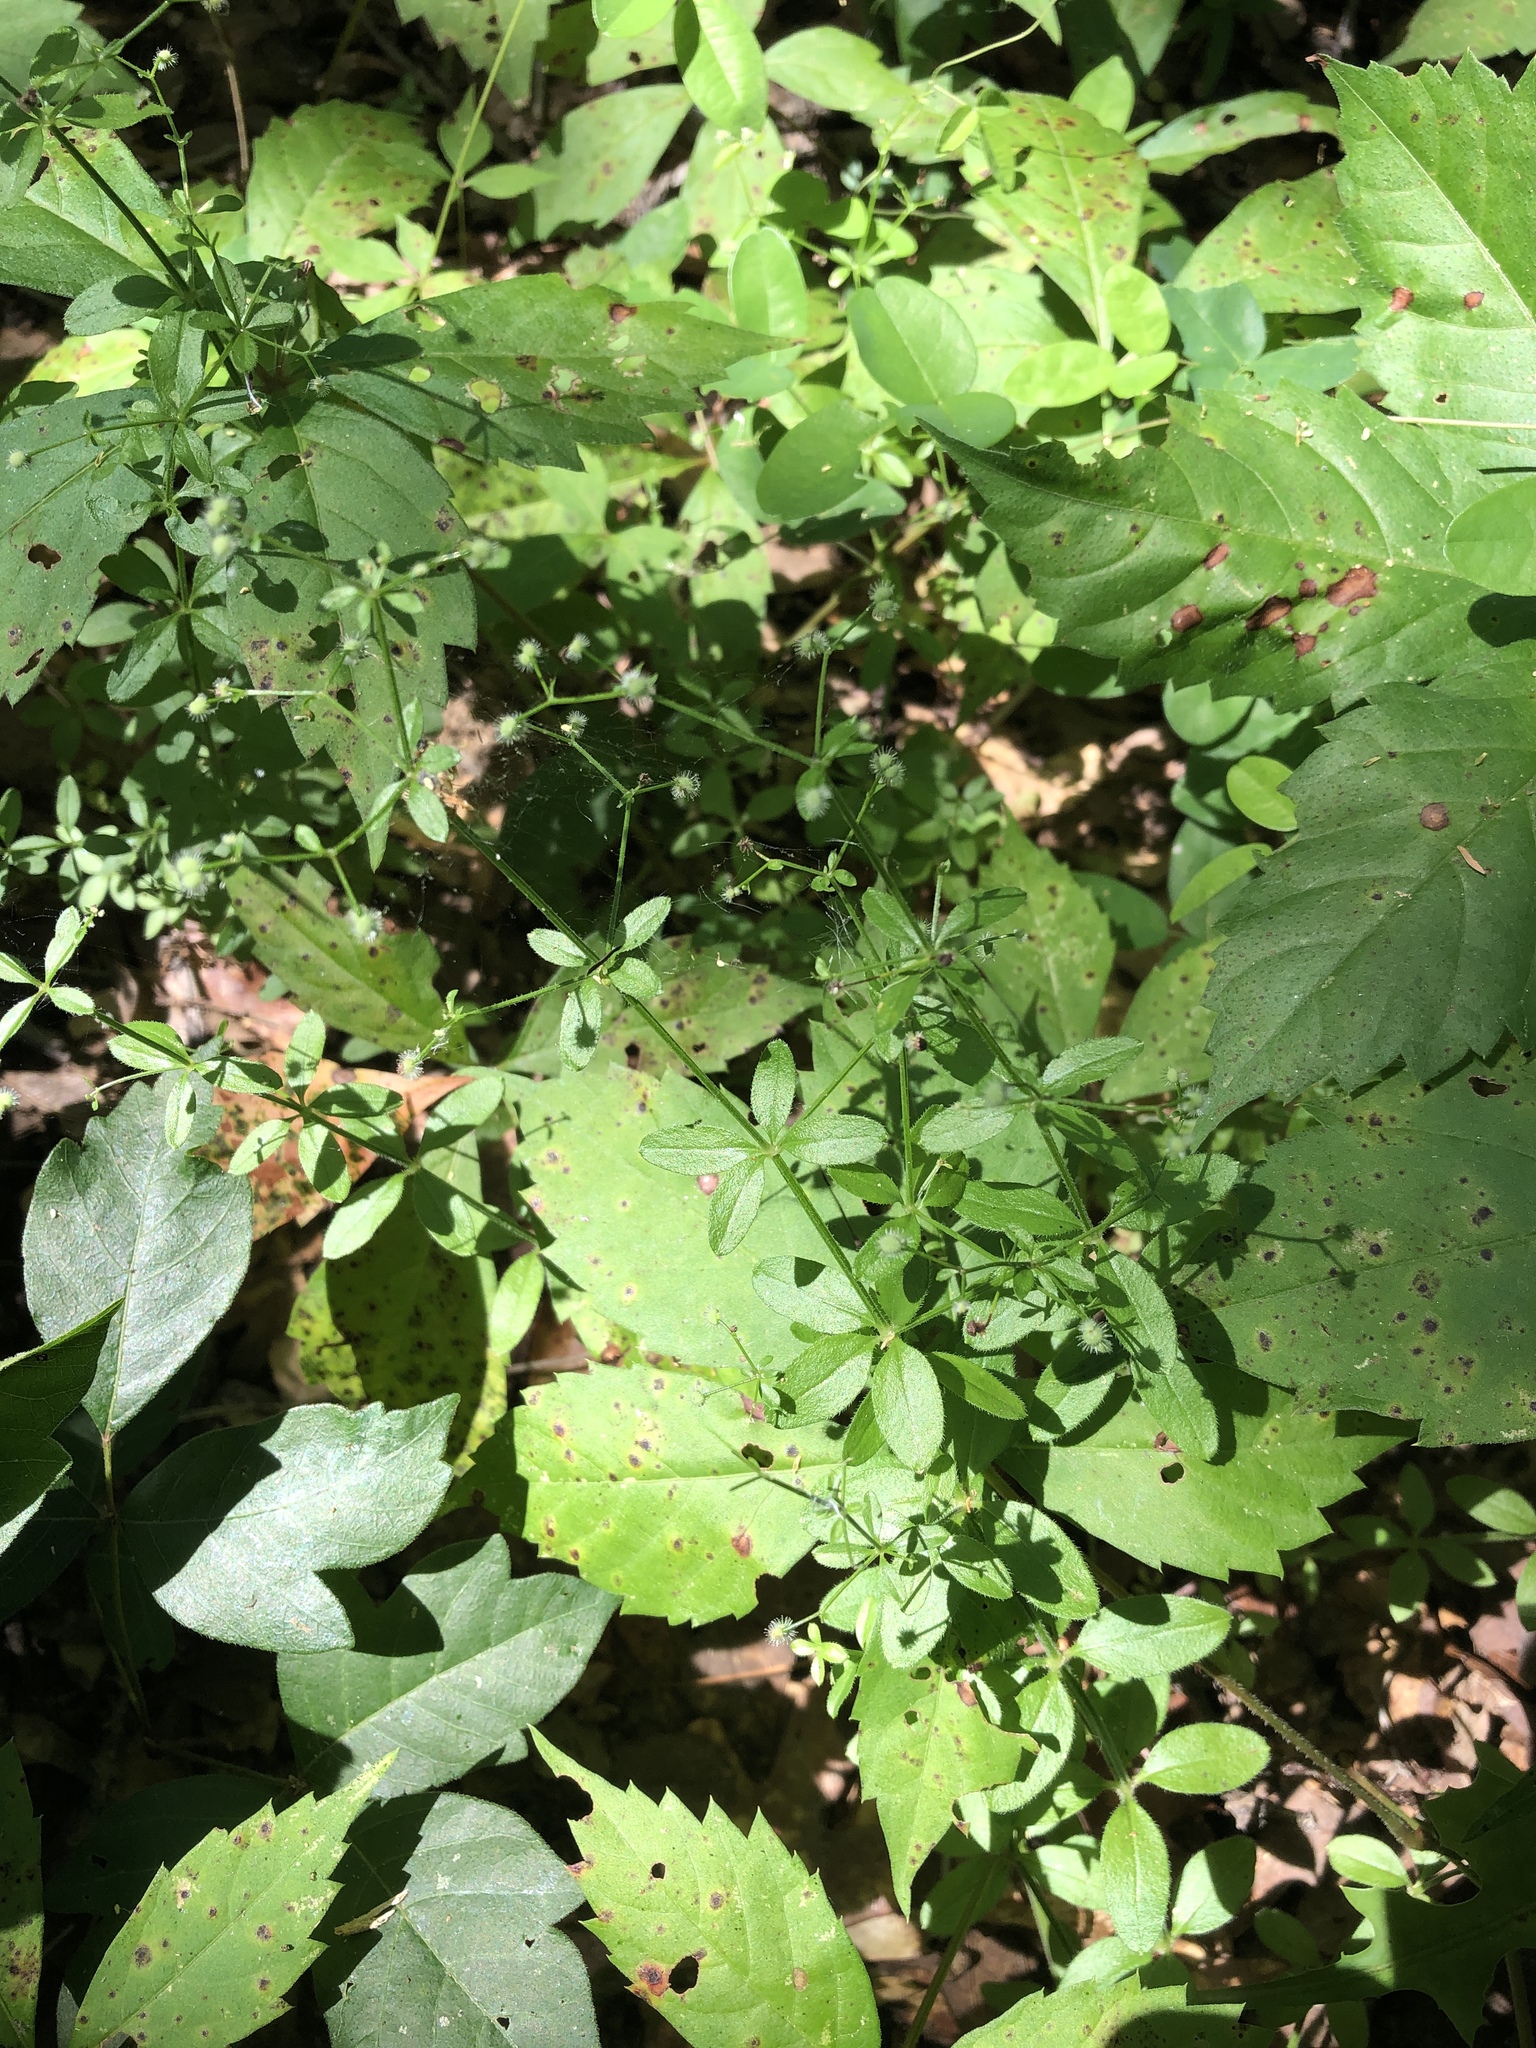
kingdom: Plantae
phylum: Tracheophyta
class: Magnoliopsida
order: Gentianales
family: Rubiaceae
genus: Galium
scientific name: Galium circaezans
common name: Forest bedstraw
